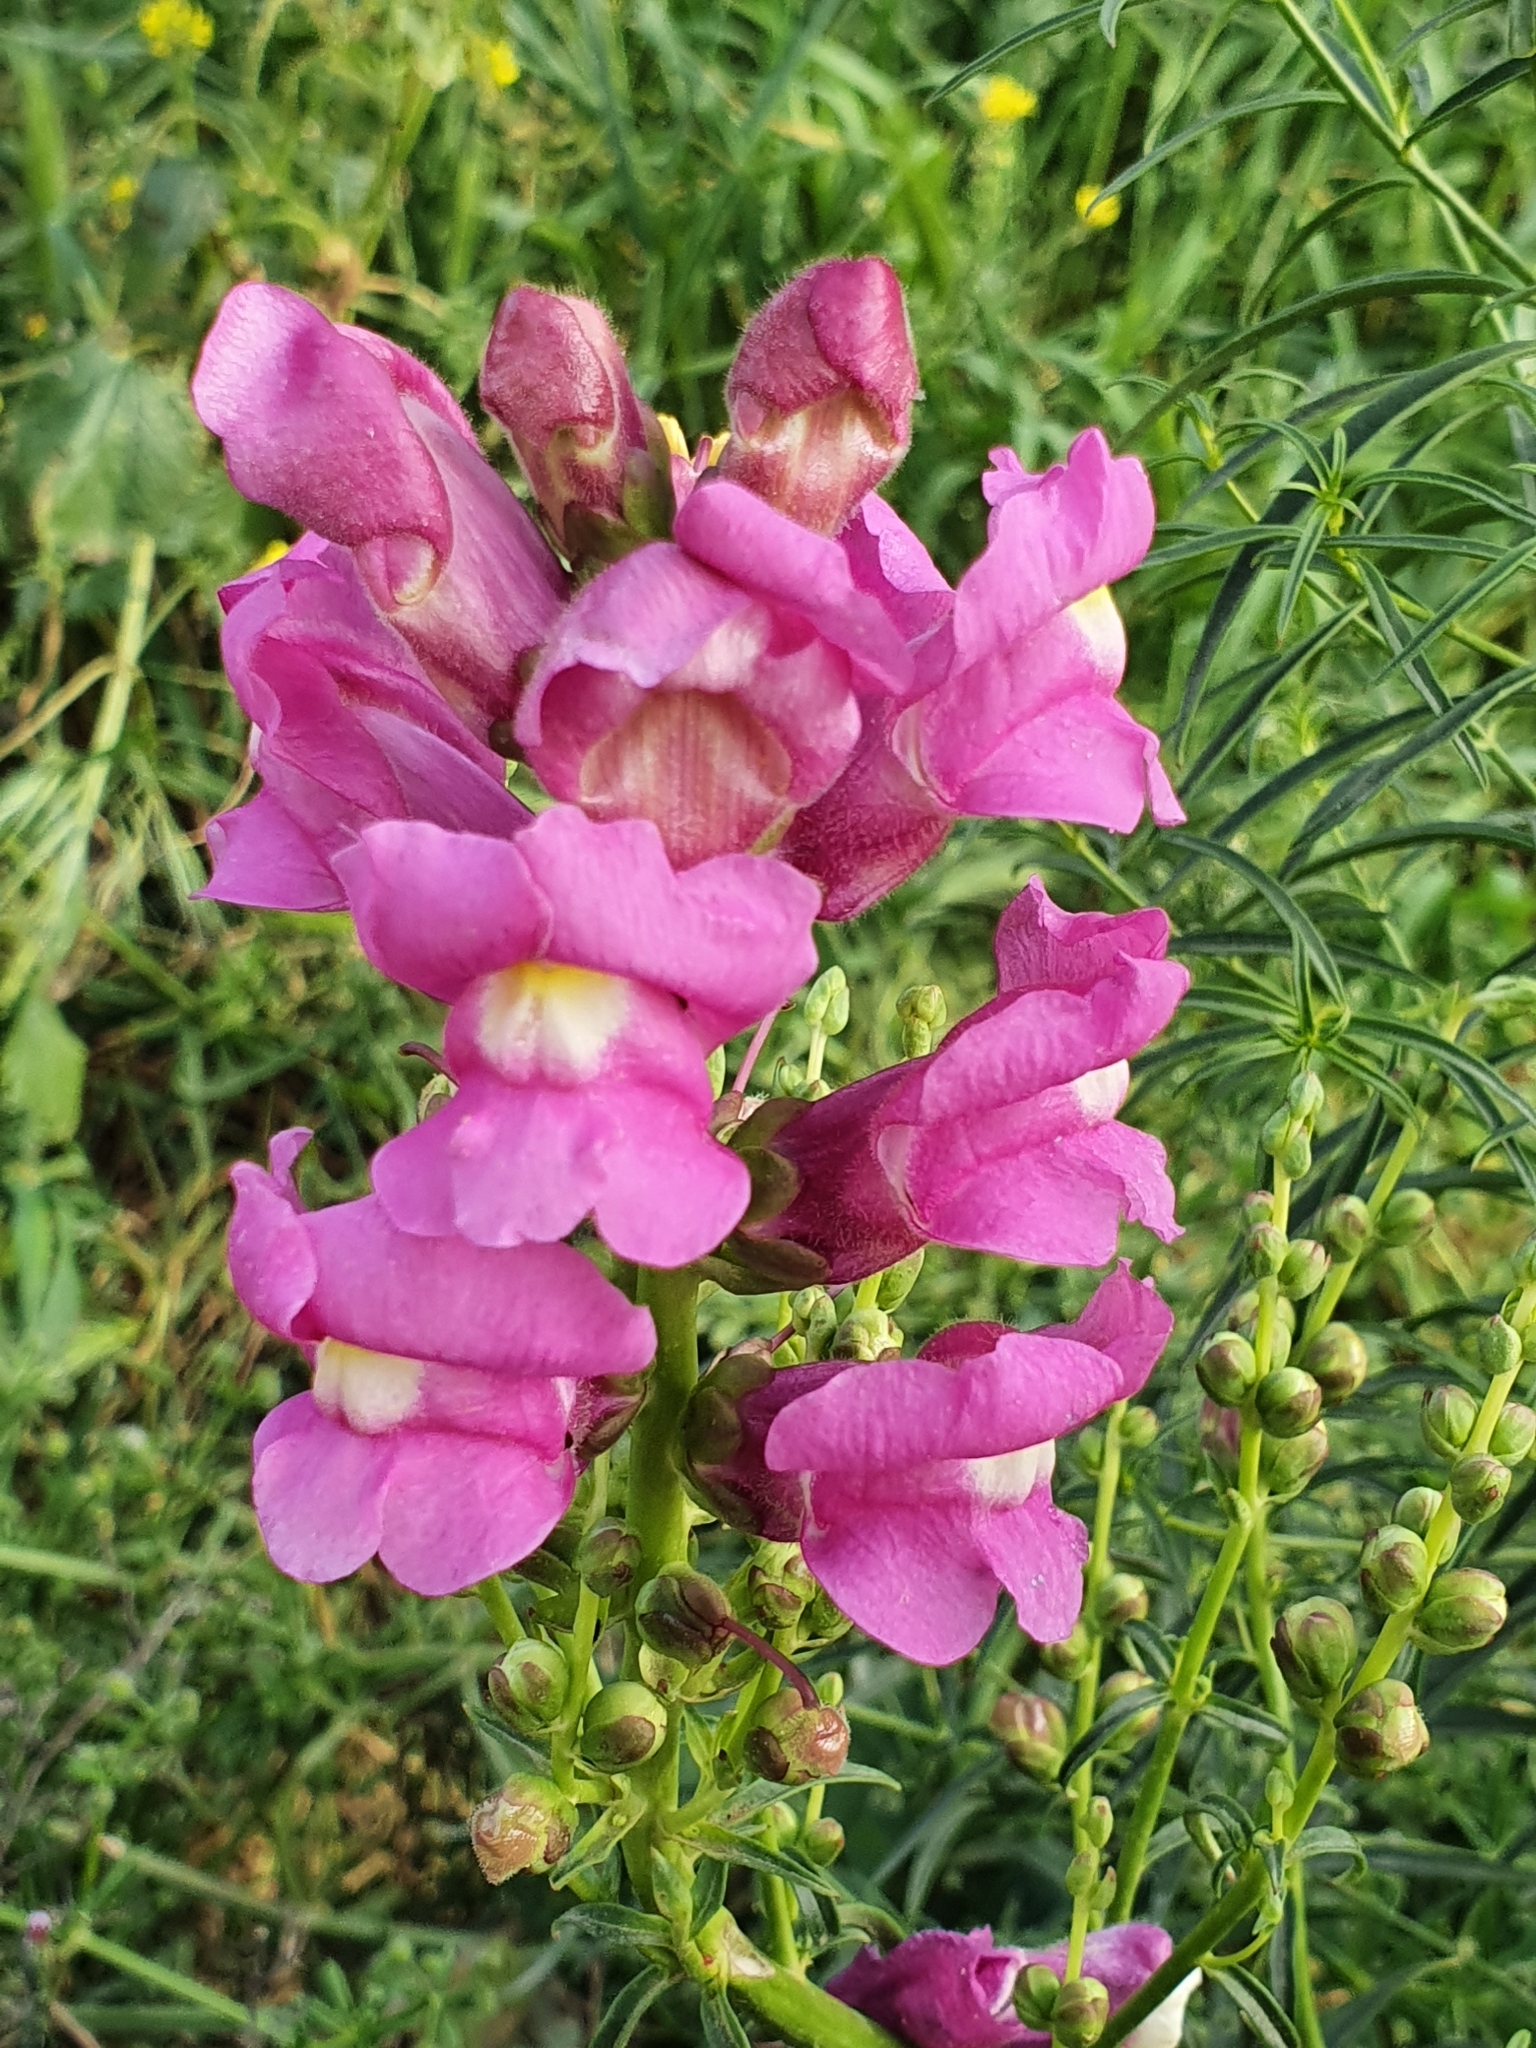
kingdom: Plantae
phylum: Tracheophyta
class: Magnoliopsida
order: Lamiales
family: Plantaginaceae
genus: Antirrhinum
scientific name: Antirrhinum tortuosum
